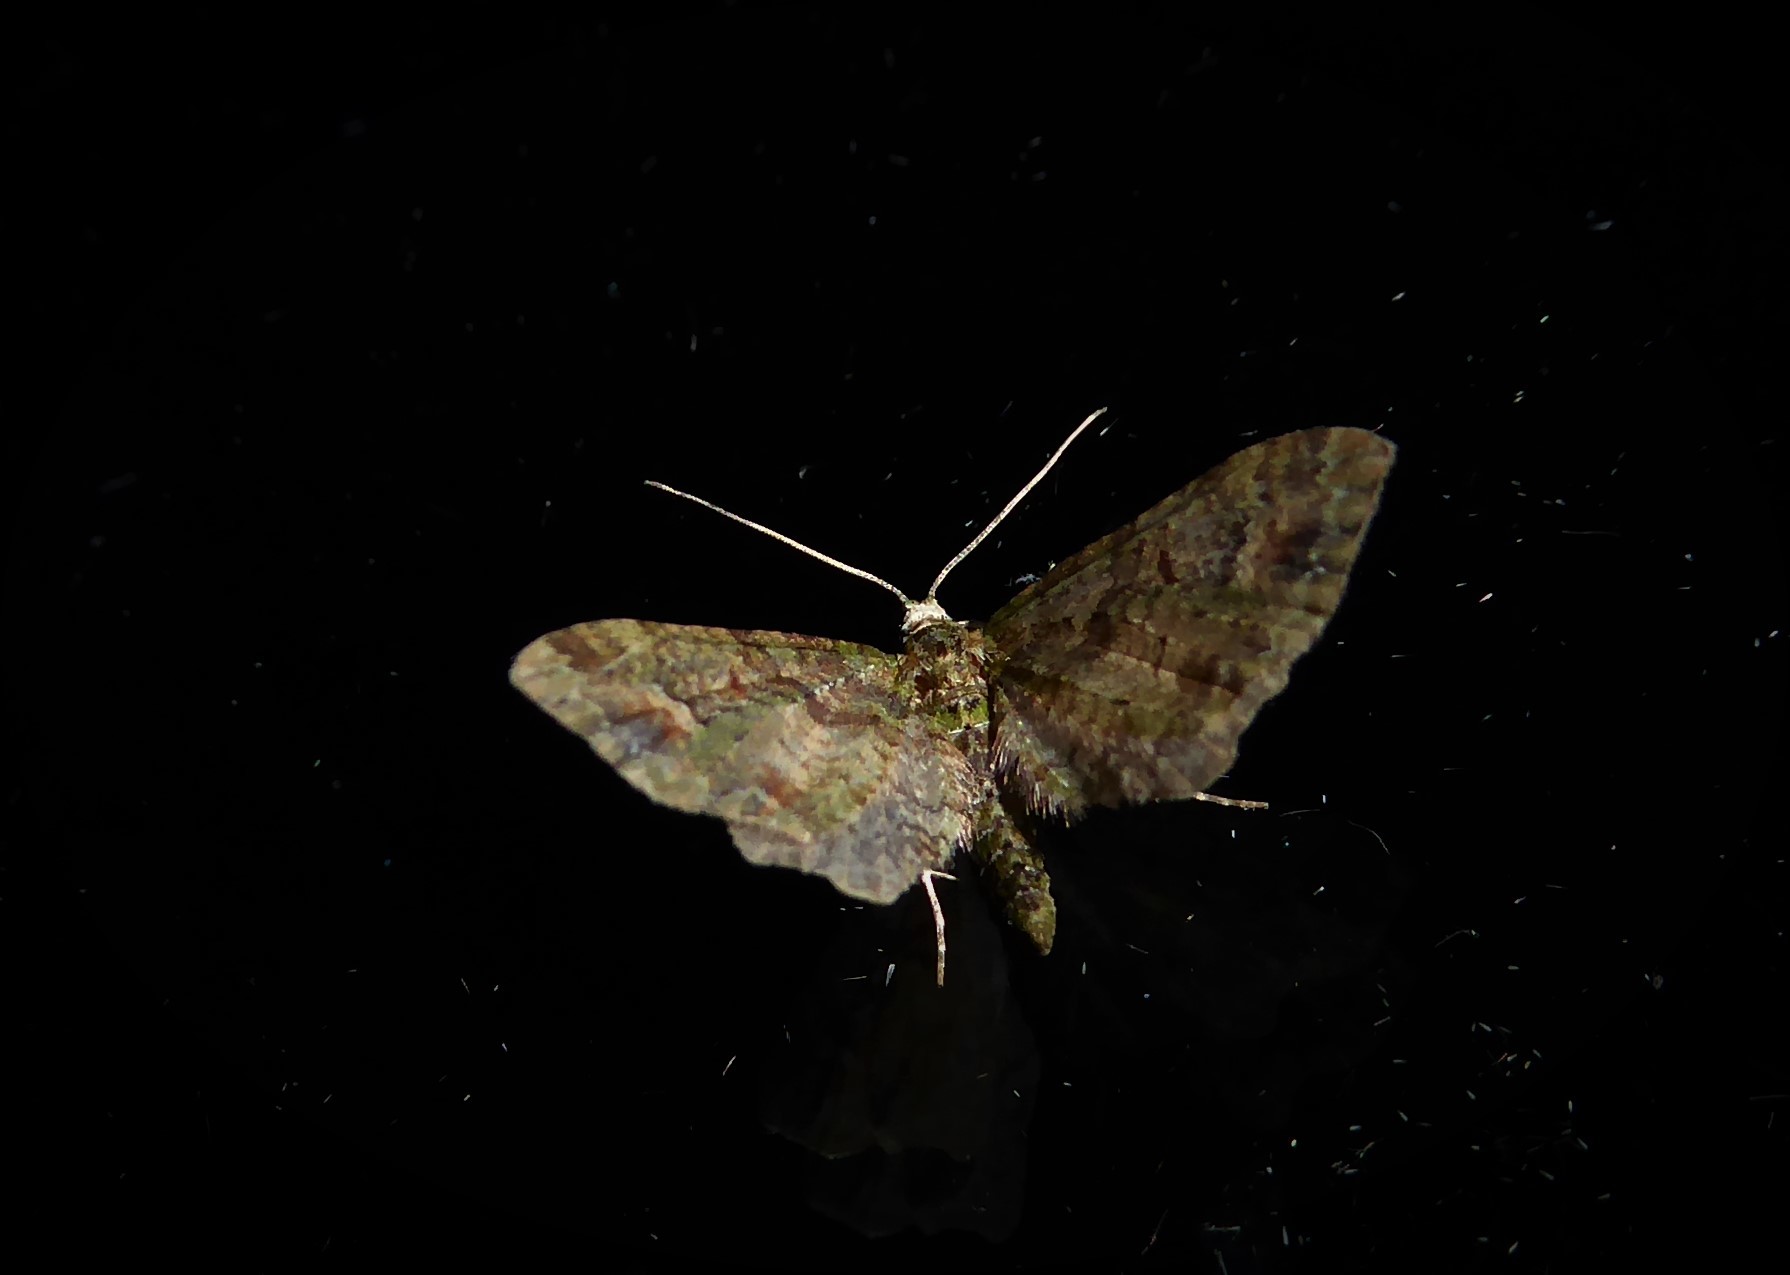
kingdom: Animalia
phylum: Arthropoda
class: Insecta
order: Lepidoptera
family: Geometridae
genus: Idaea
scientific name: Idaea mutanda
